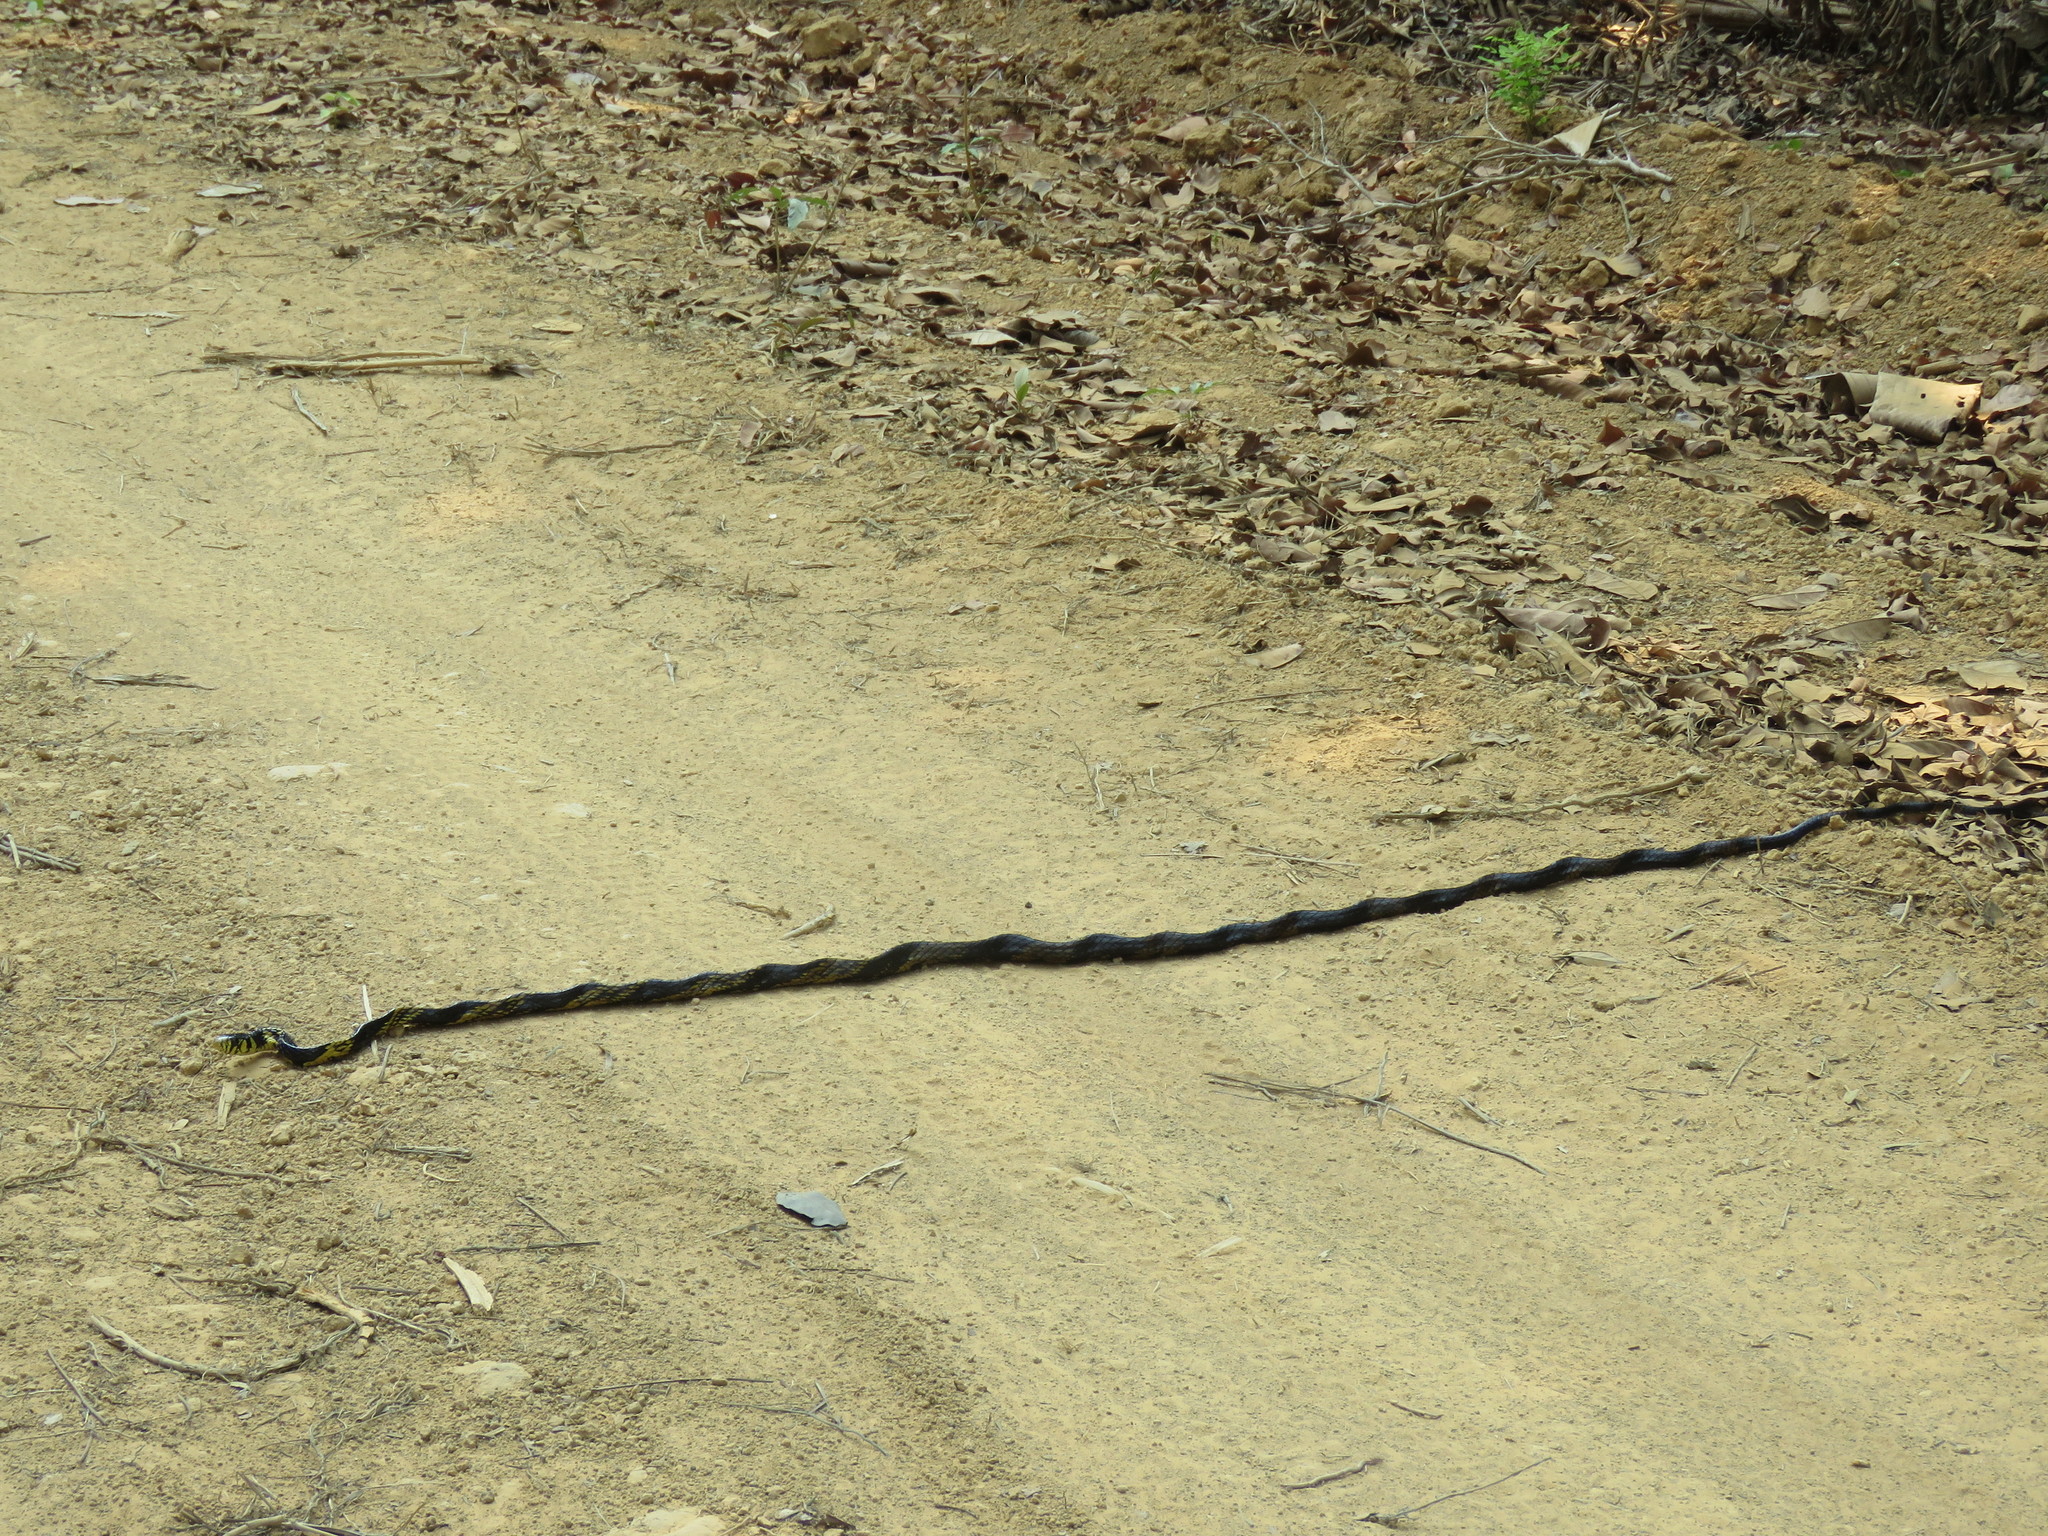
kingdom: Animalia
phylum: Chordata
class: Squamata
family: Colubridae
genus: Spilotes
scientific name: Spilotes pullatus
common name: Chicken snake
